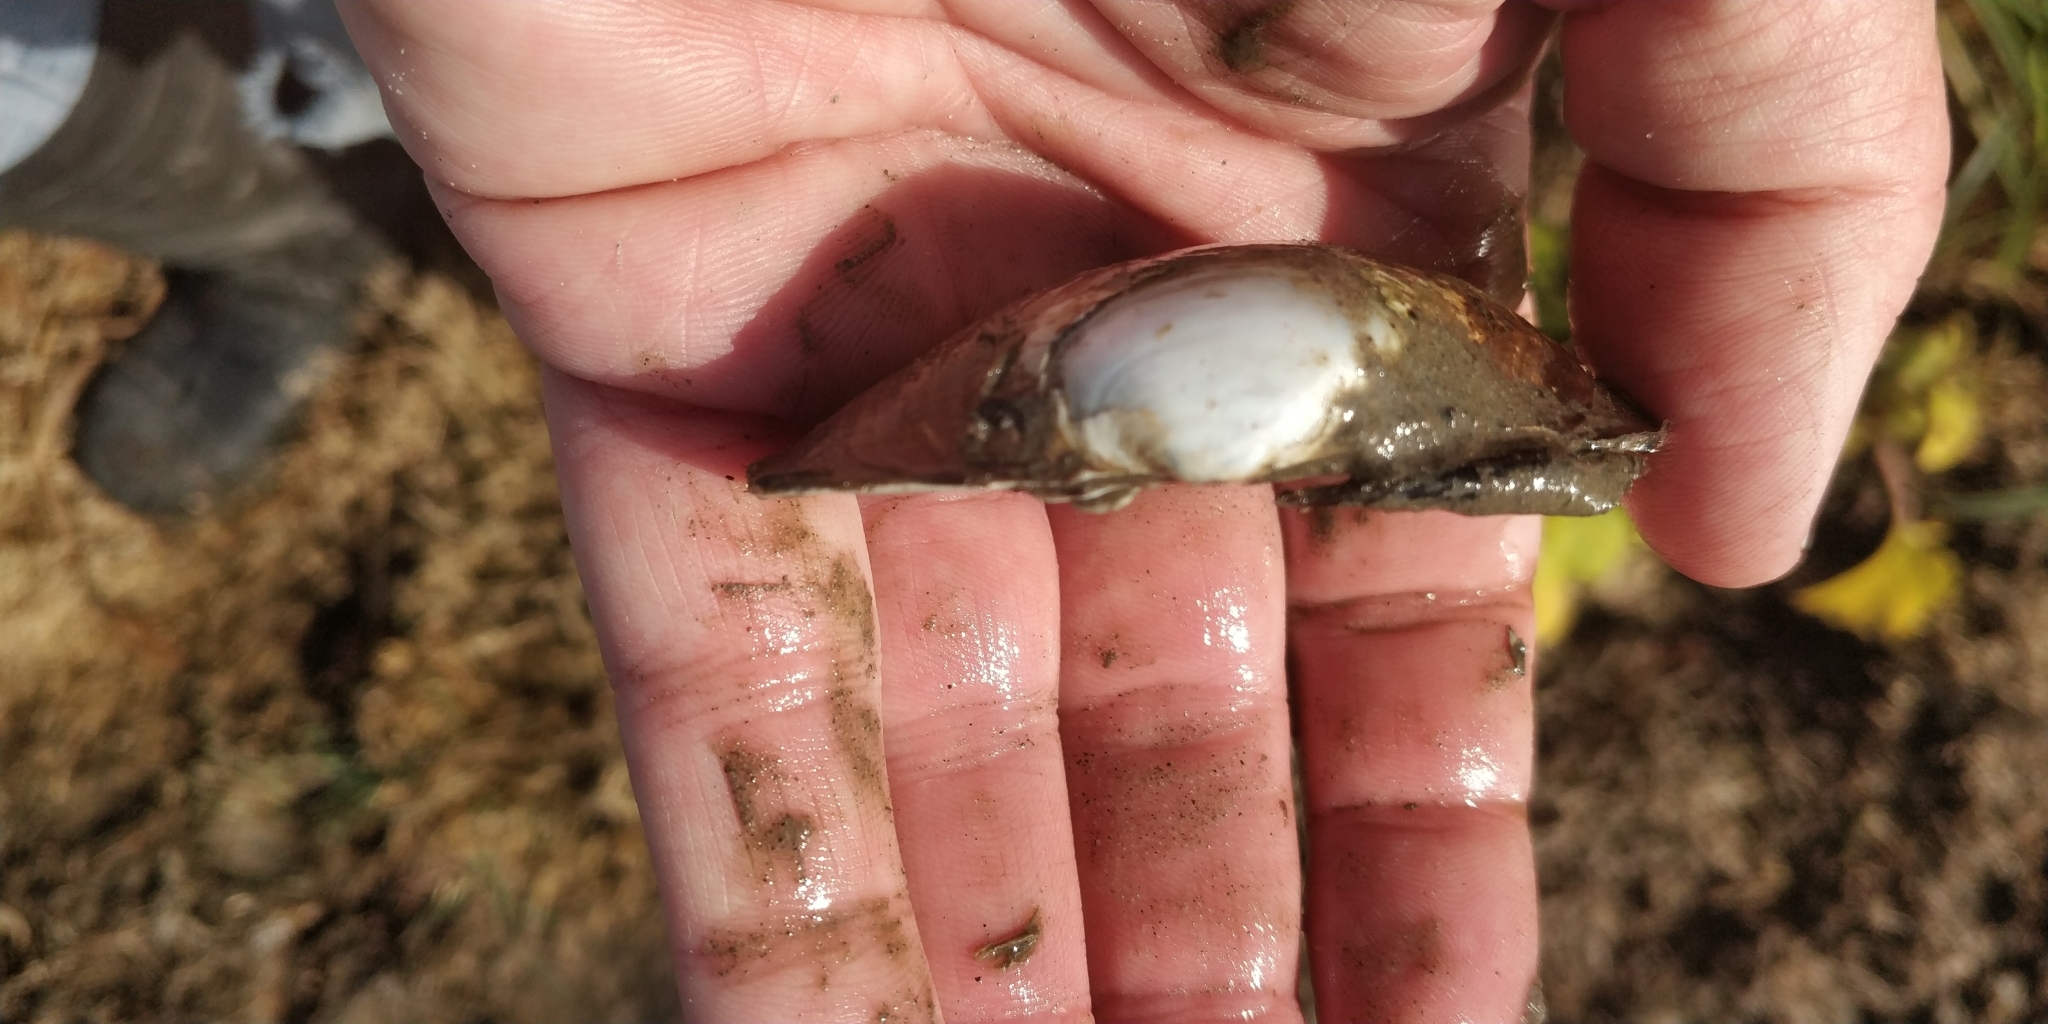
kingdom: Animalia
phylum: Mollusca
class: Bivalvia
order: Unionida
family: Unionidae
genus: Lampsilis
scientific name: Lampsilis cardium
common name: Plain pocketbook
